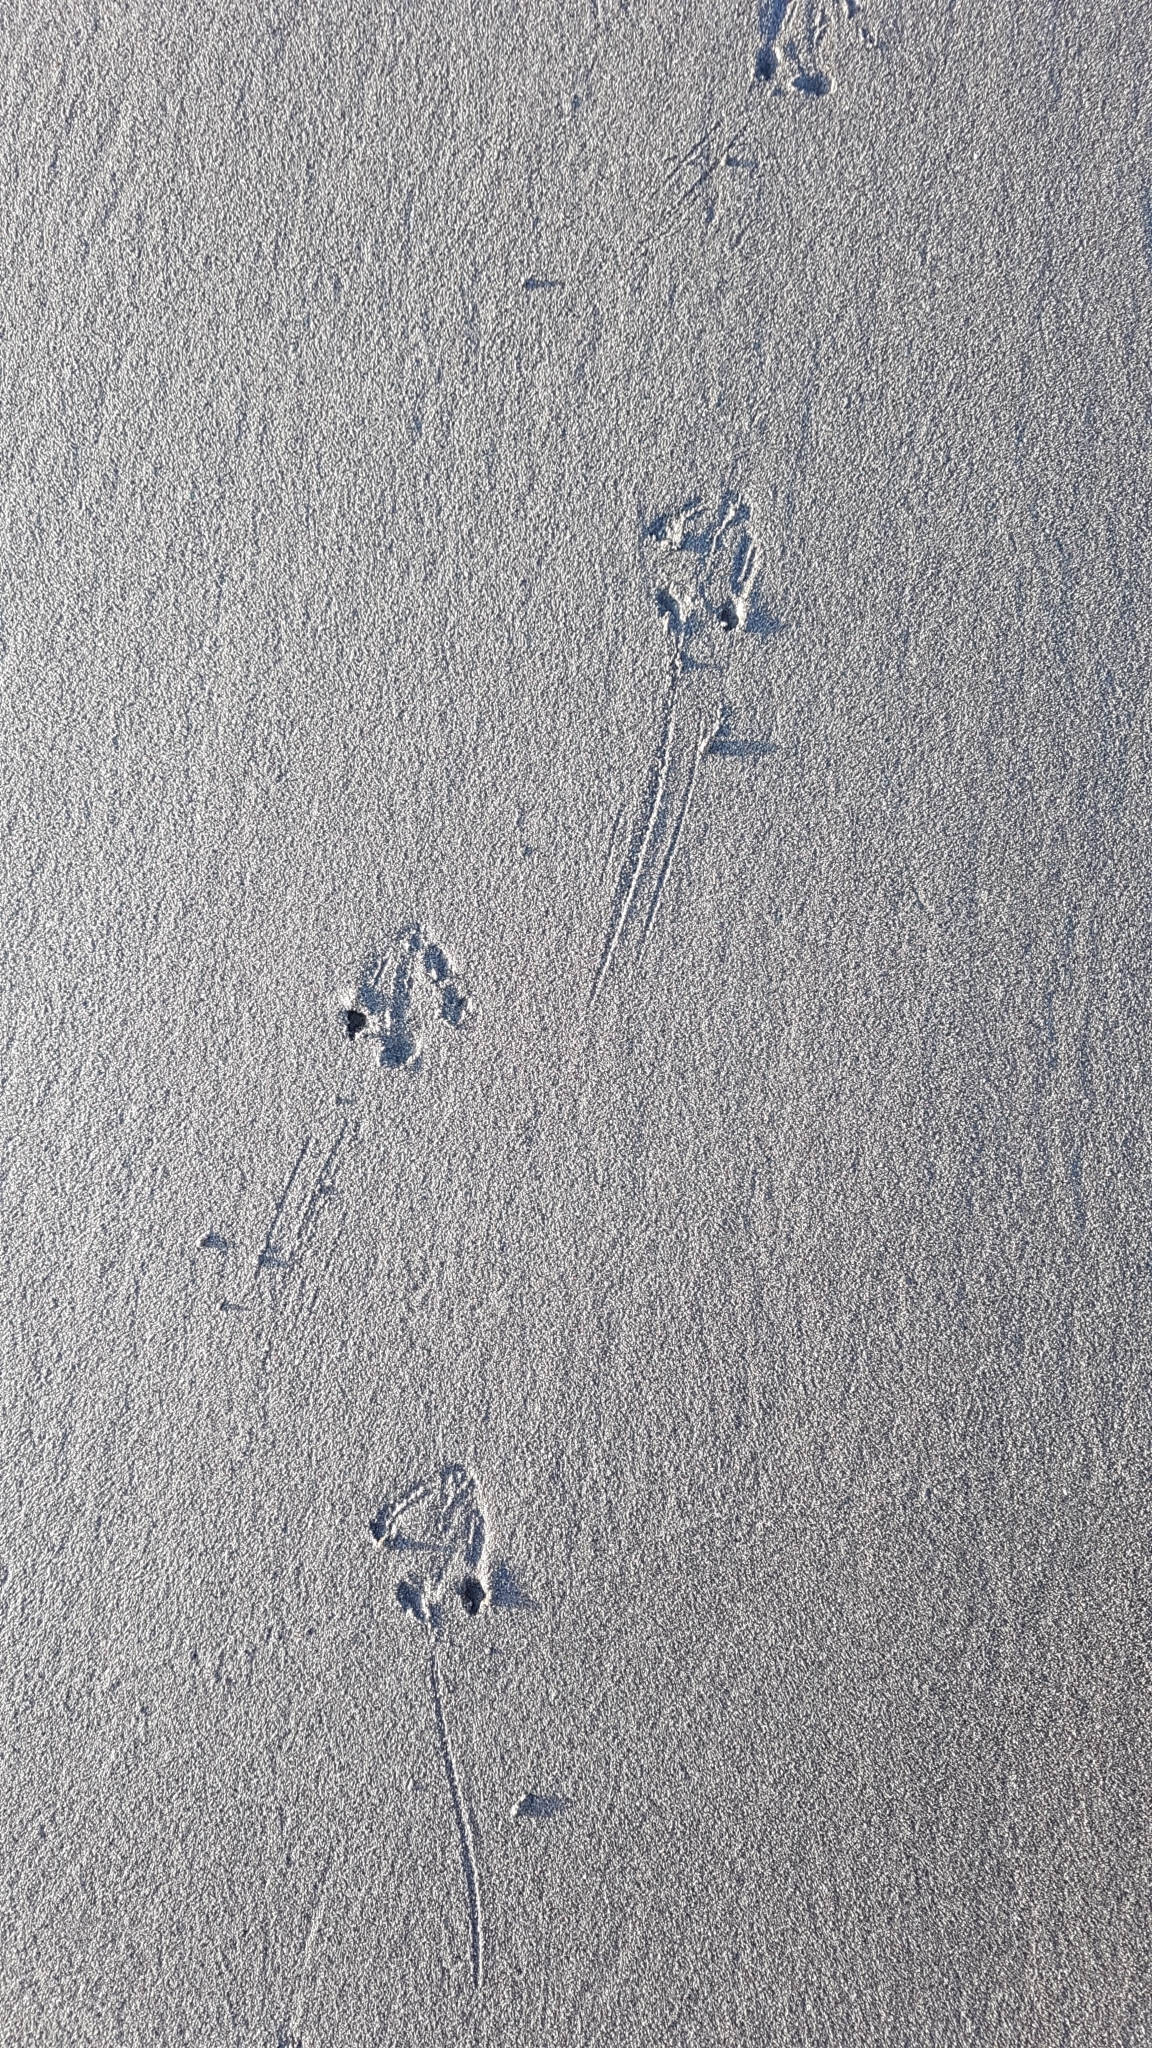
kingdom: Animalia
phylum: Chordata
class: Aves
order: Sphenisciformes
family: Spheniscidae
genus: Eudyptula
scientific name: Eudyptula minor
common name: Little penguin
